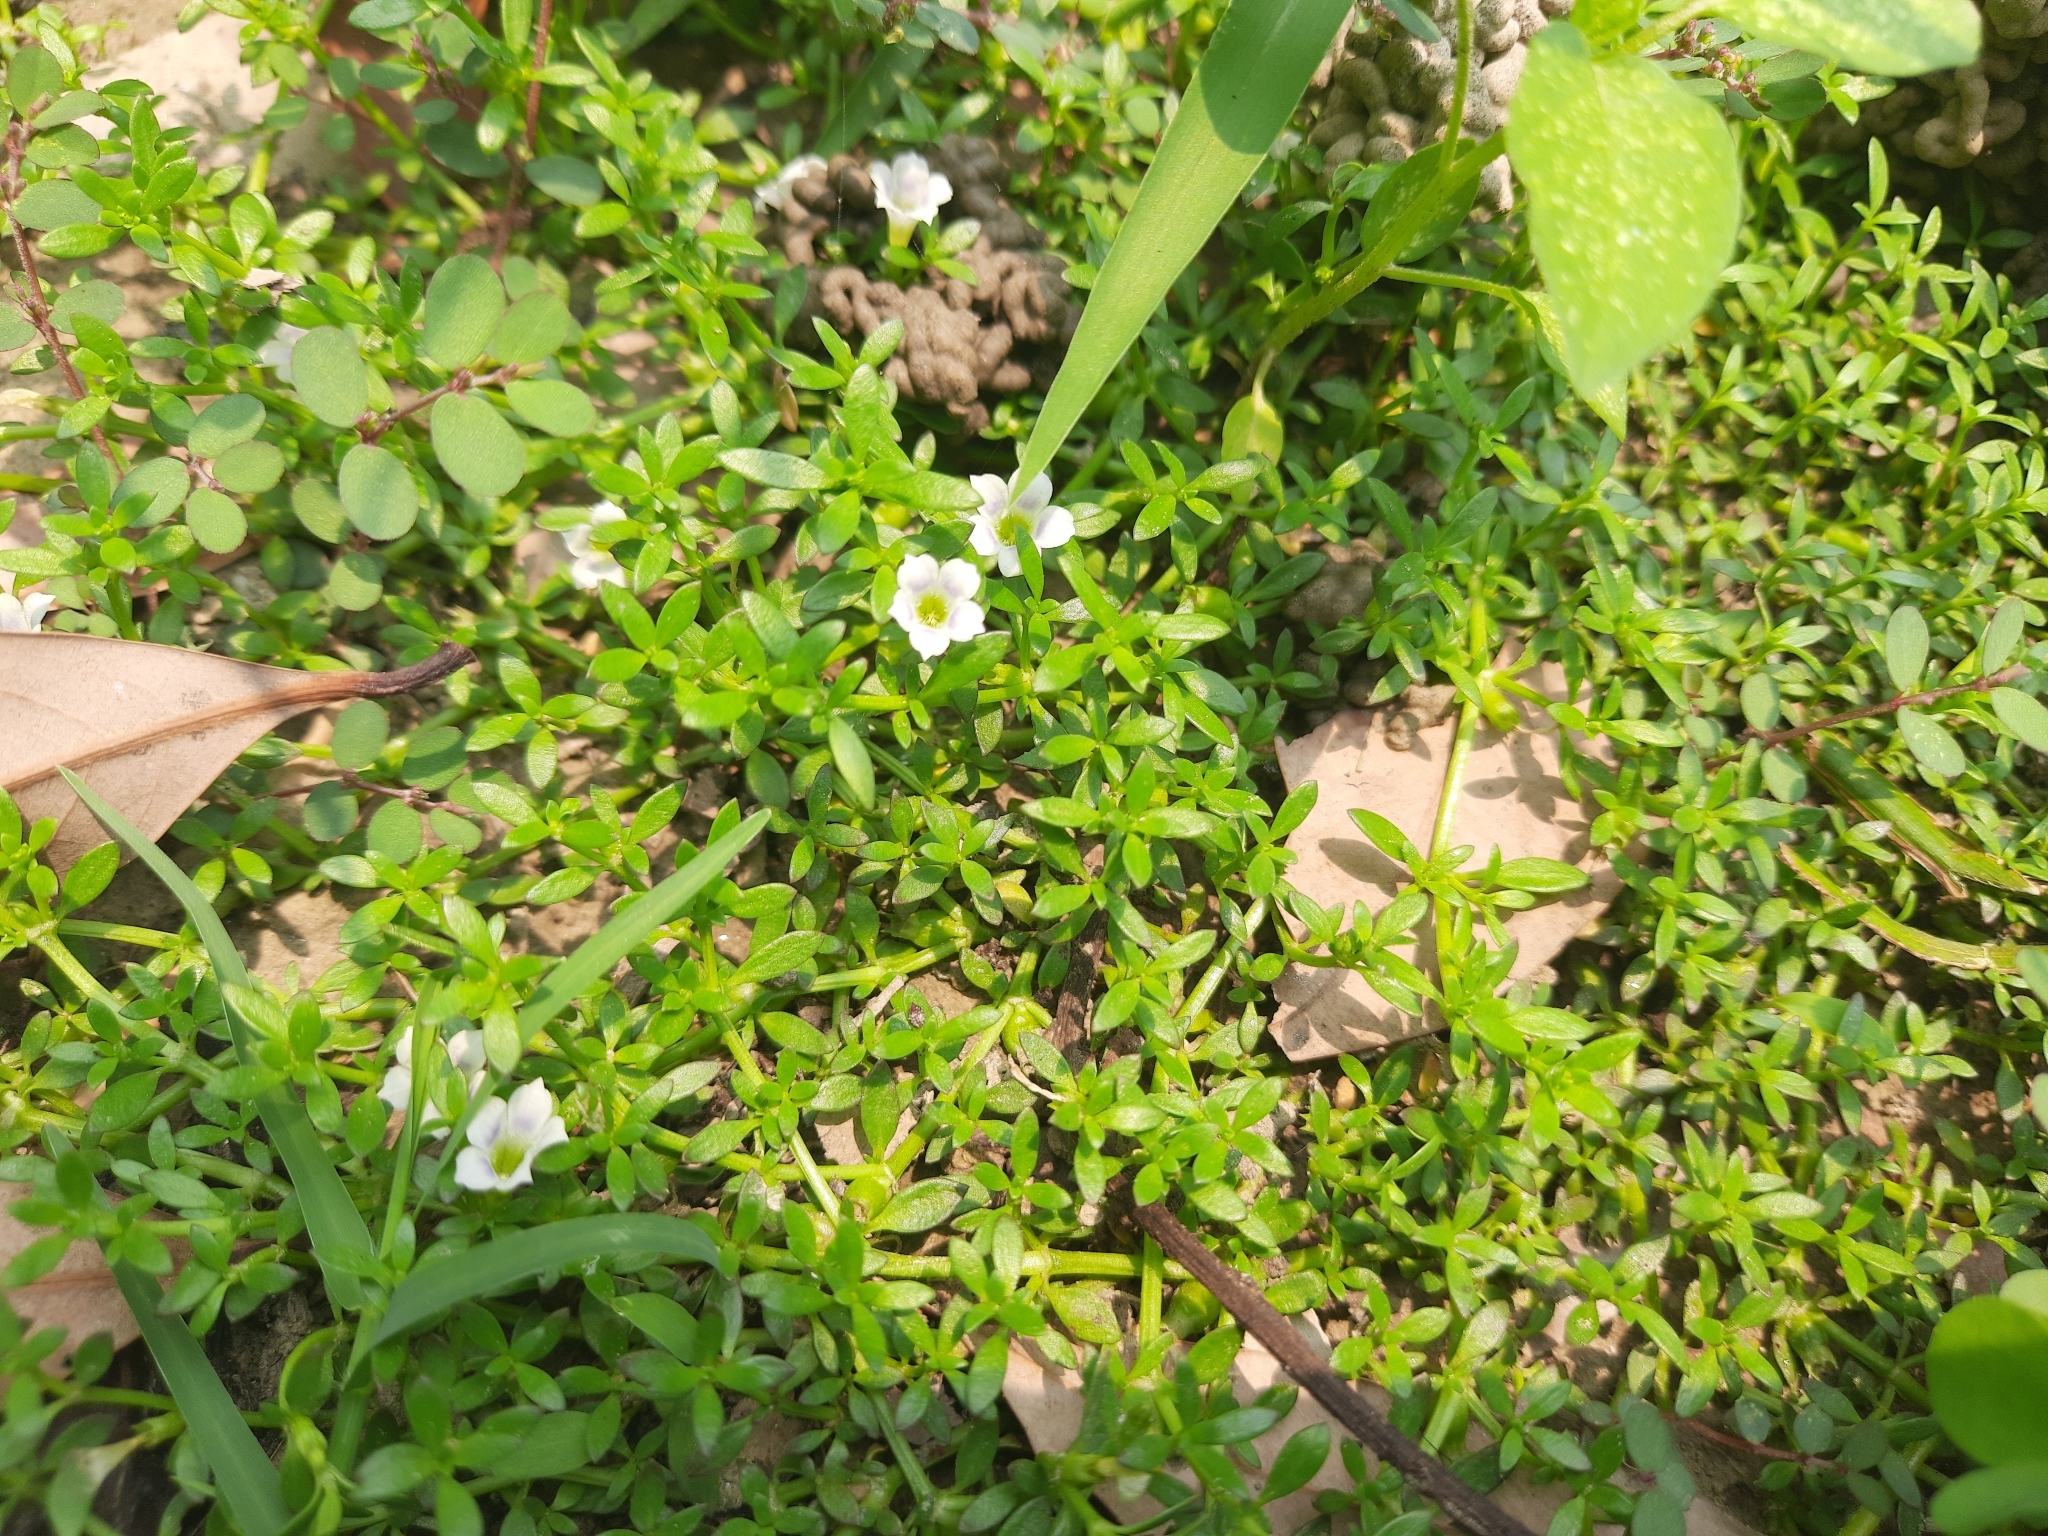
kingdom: Plantae
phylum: Tracheophyta
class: Magnoliopsida
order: Gentianales
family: Rubiaceae
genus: Dentella
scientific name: Dentella repens
